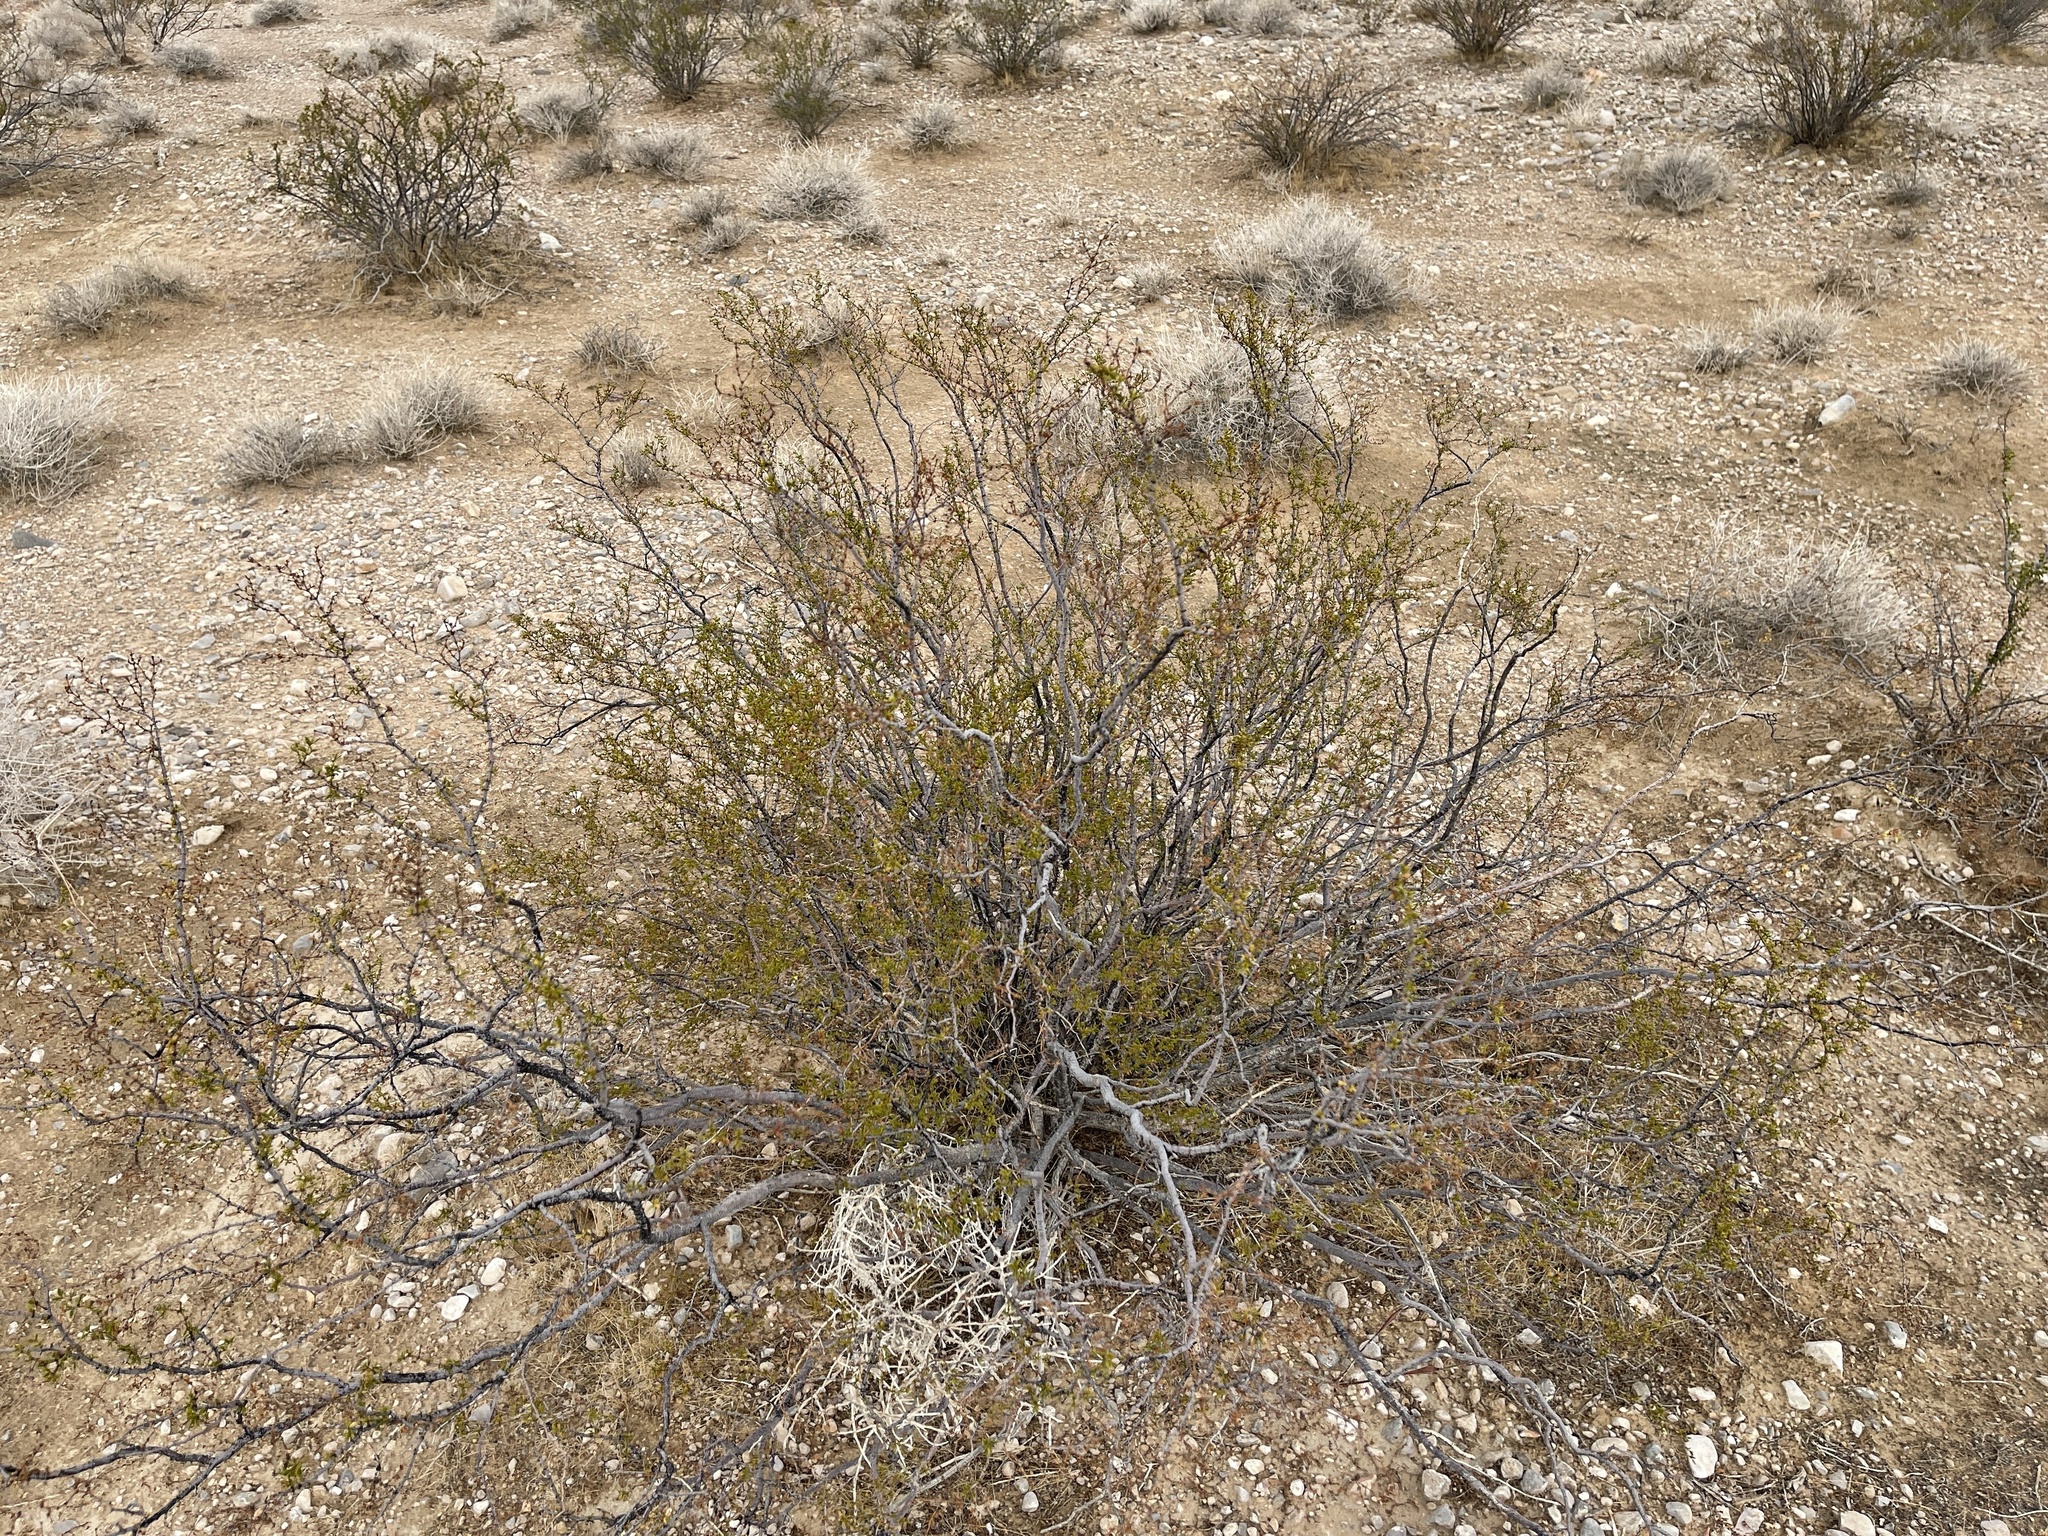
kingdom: Plantae
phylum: Tracheophyta
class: Magnoliopsida
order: Zygophyllales
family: Zygophyllaceae
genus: Larrea
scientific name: Larrea tridentata
